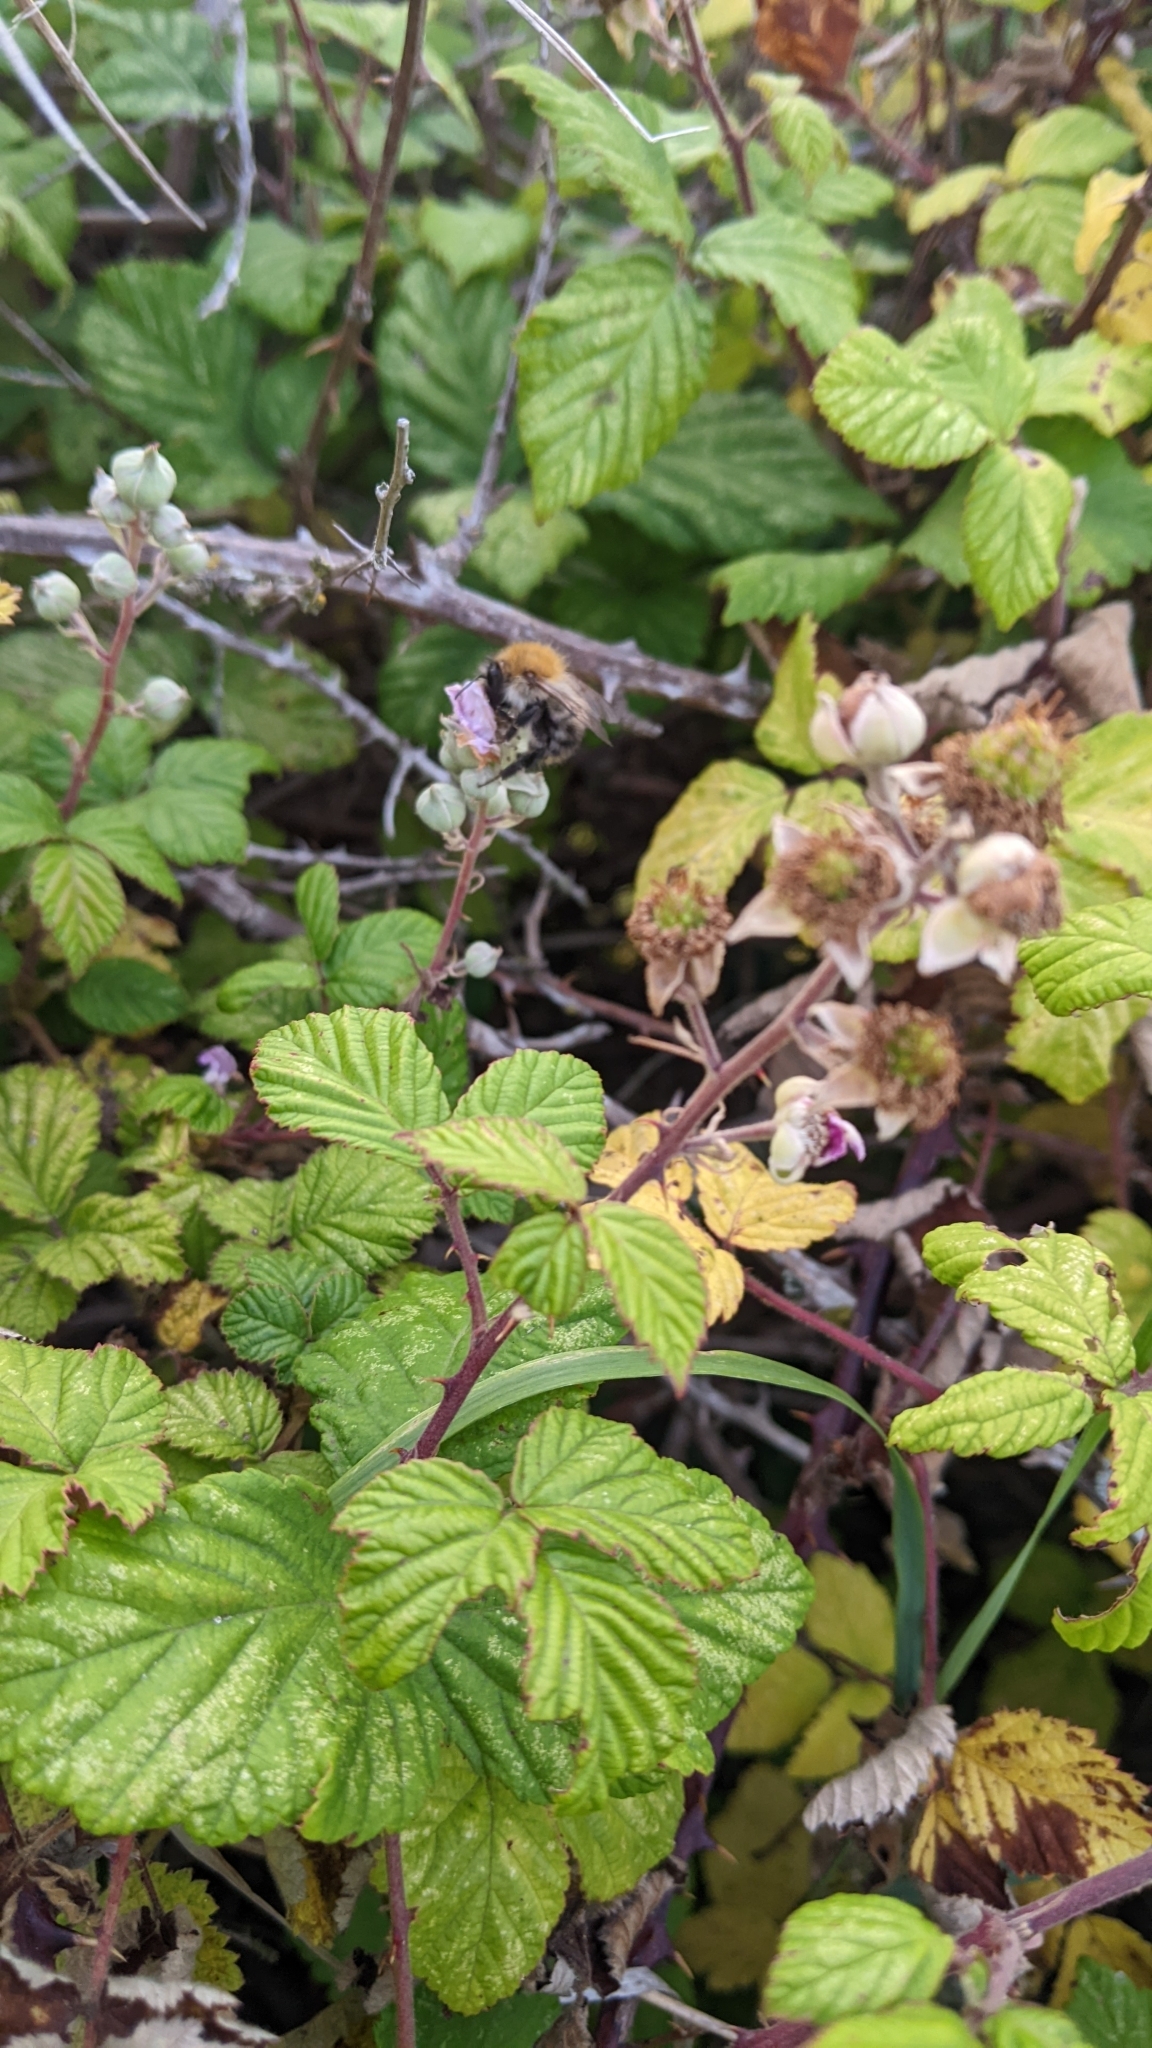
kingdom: Animalia
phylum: Arthropoda
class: Insecta
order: Hymenoptera
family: Apidae
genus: Bombus
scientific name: Bombus pascuorum
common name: Common carder bee
